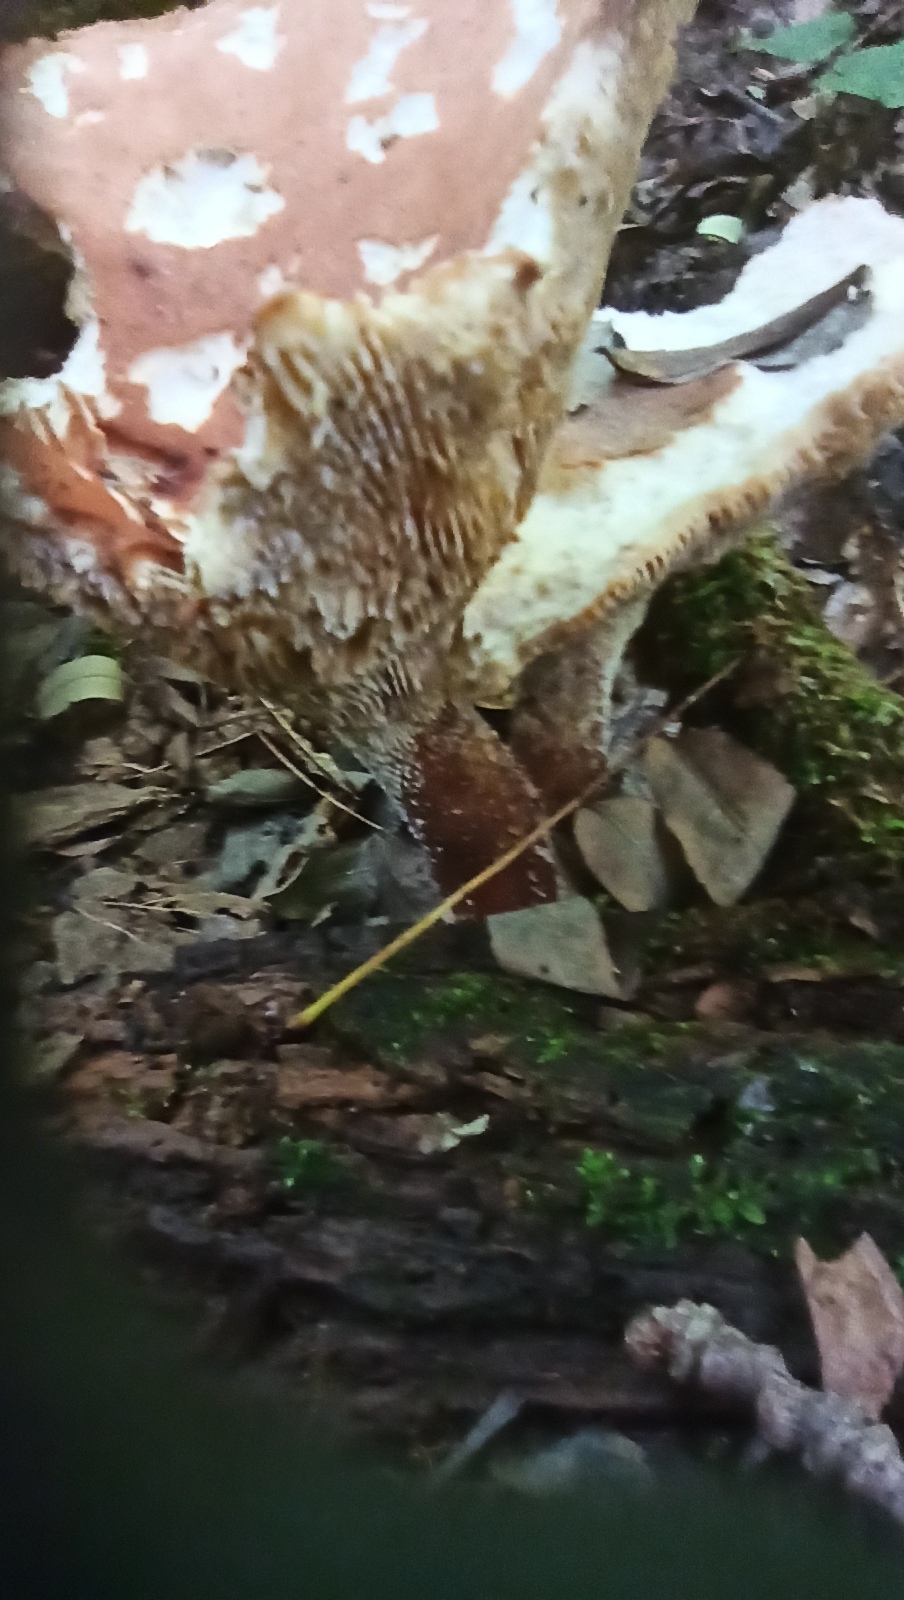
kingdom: Fungi
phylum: Basidiomycota
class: Agaricomycetes
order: Gloeophyllales
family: Gloeophyllaceae
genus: Neolentinus
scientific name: Neolentinus cyathiformis
